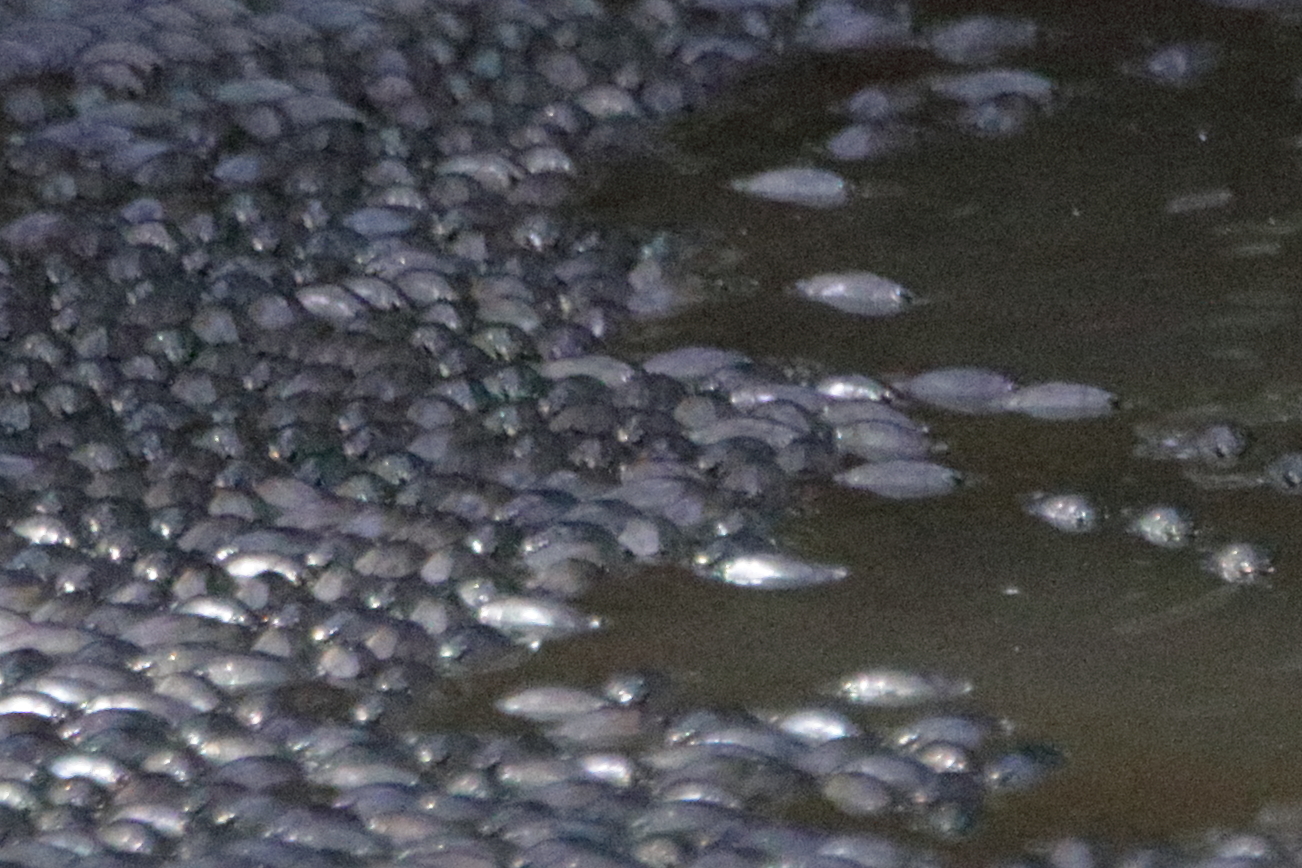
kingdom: Animalia
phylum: Arthropoda
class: Insecta
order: Coleoptera
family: Gyrinidae
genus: Dineutus
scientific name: Dineutus
